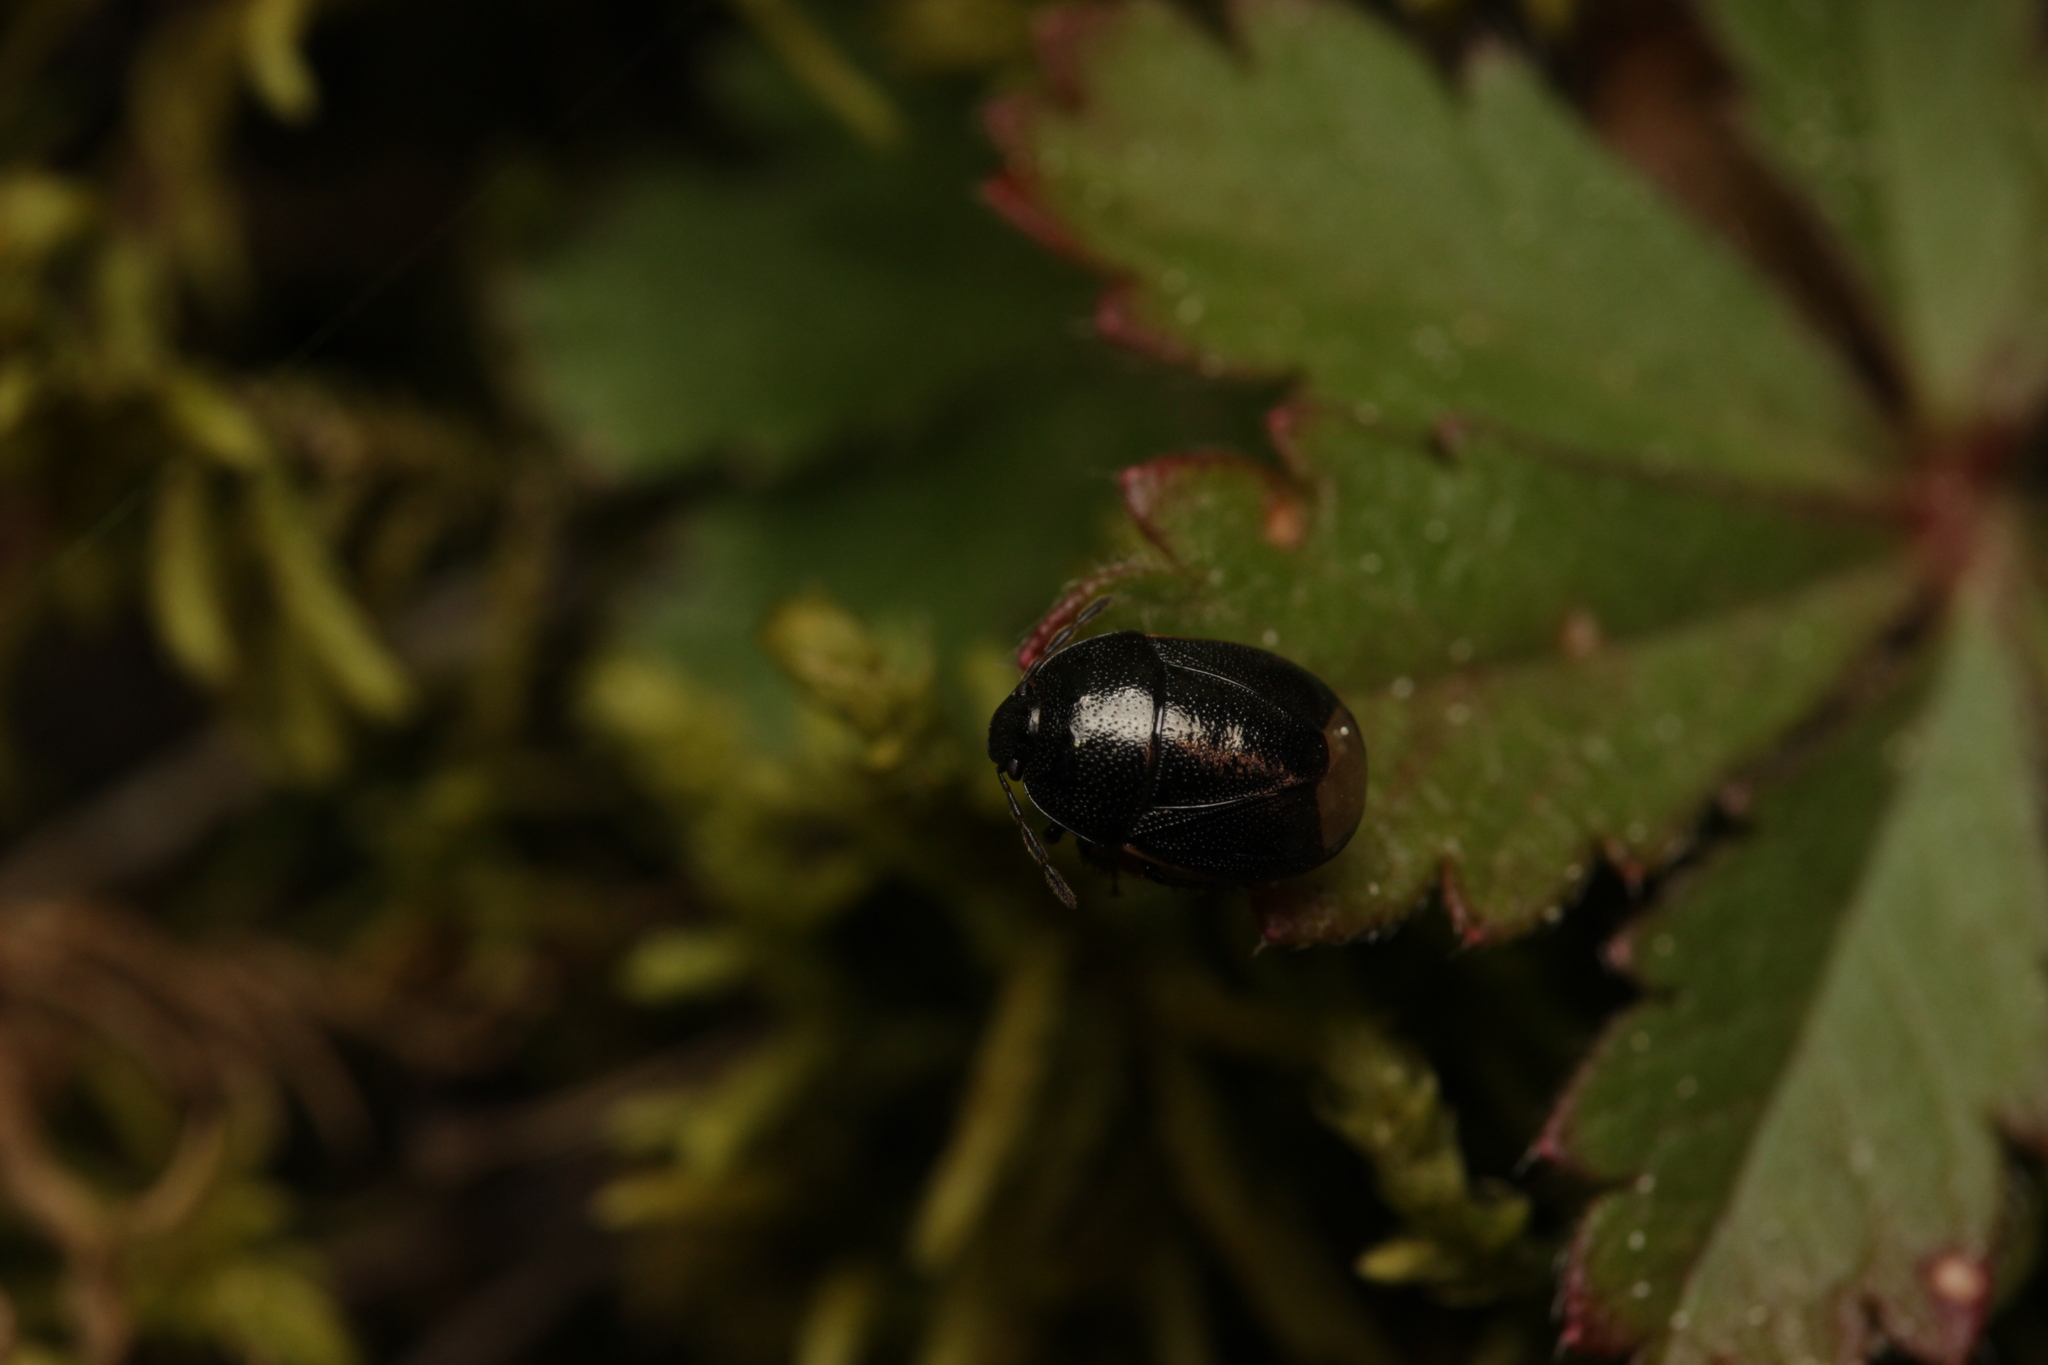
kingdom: Animalia
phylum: Arthropoda
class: Insecta
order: Hemiptera
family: Cydnidae
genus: Legnotus
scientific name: Legnotus picipes
